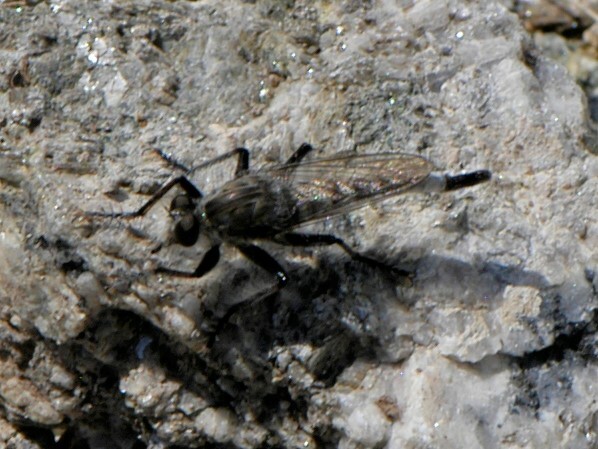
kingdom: Animalia
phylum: Arthropoda
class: Insecta
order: Diptera
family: Asilidae
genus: Efferia
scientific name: Efferia
